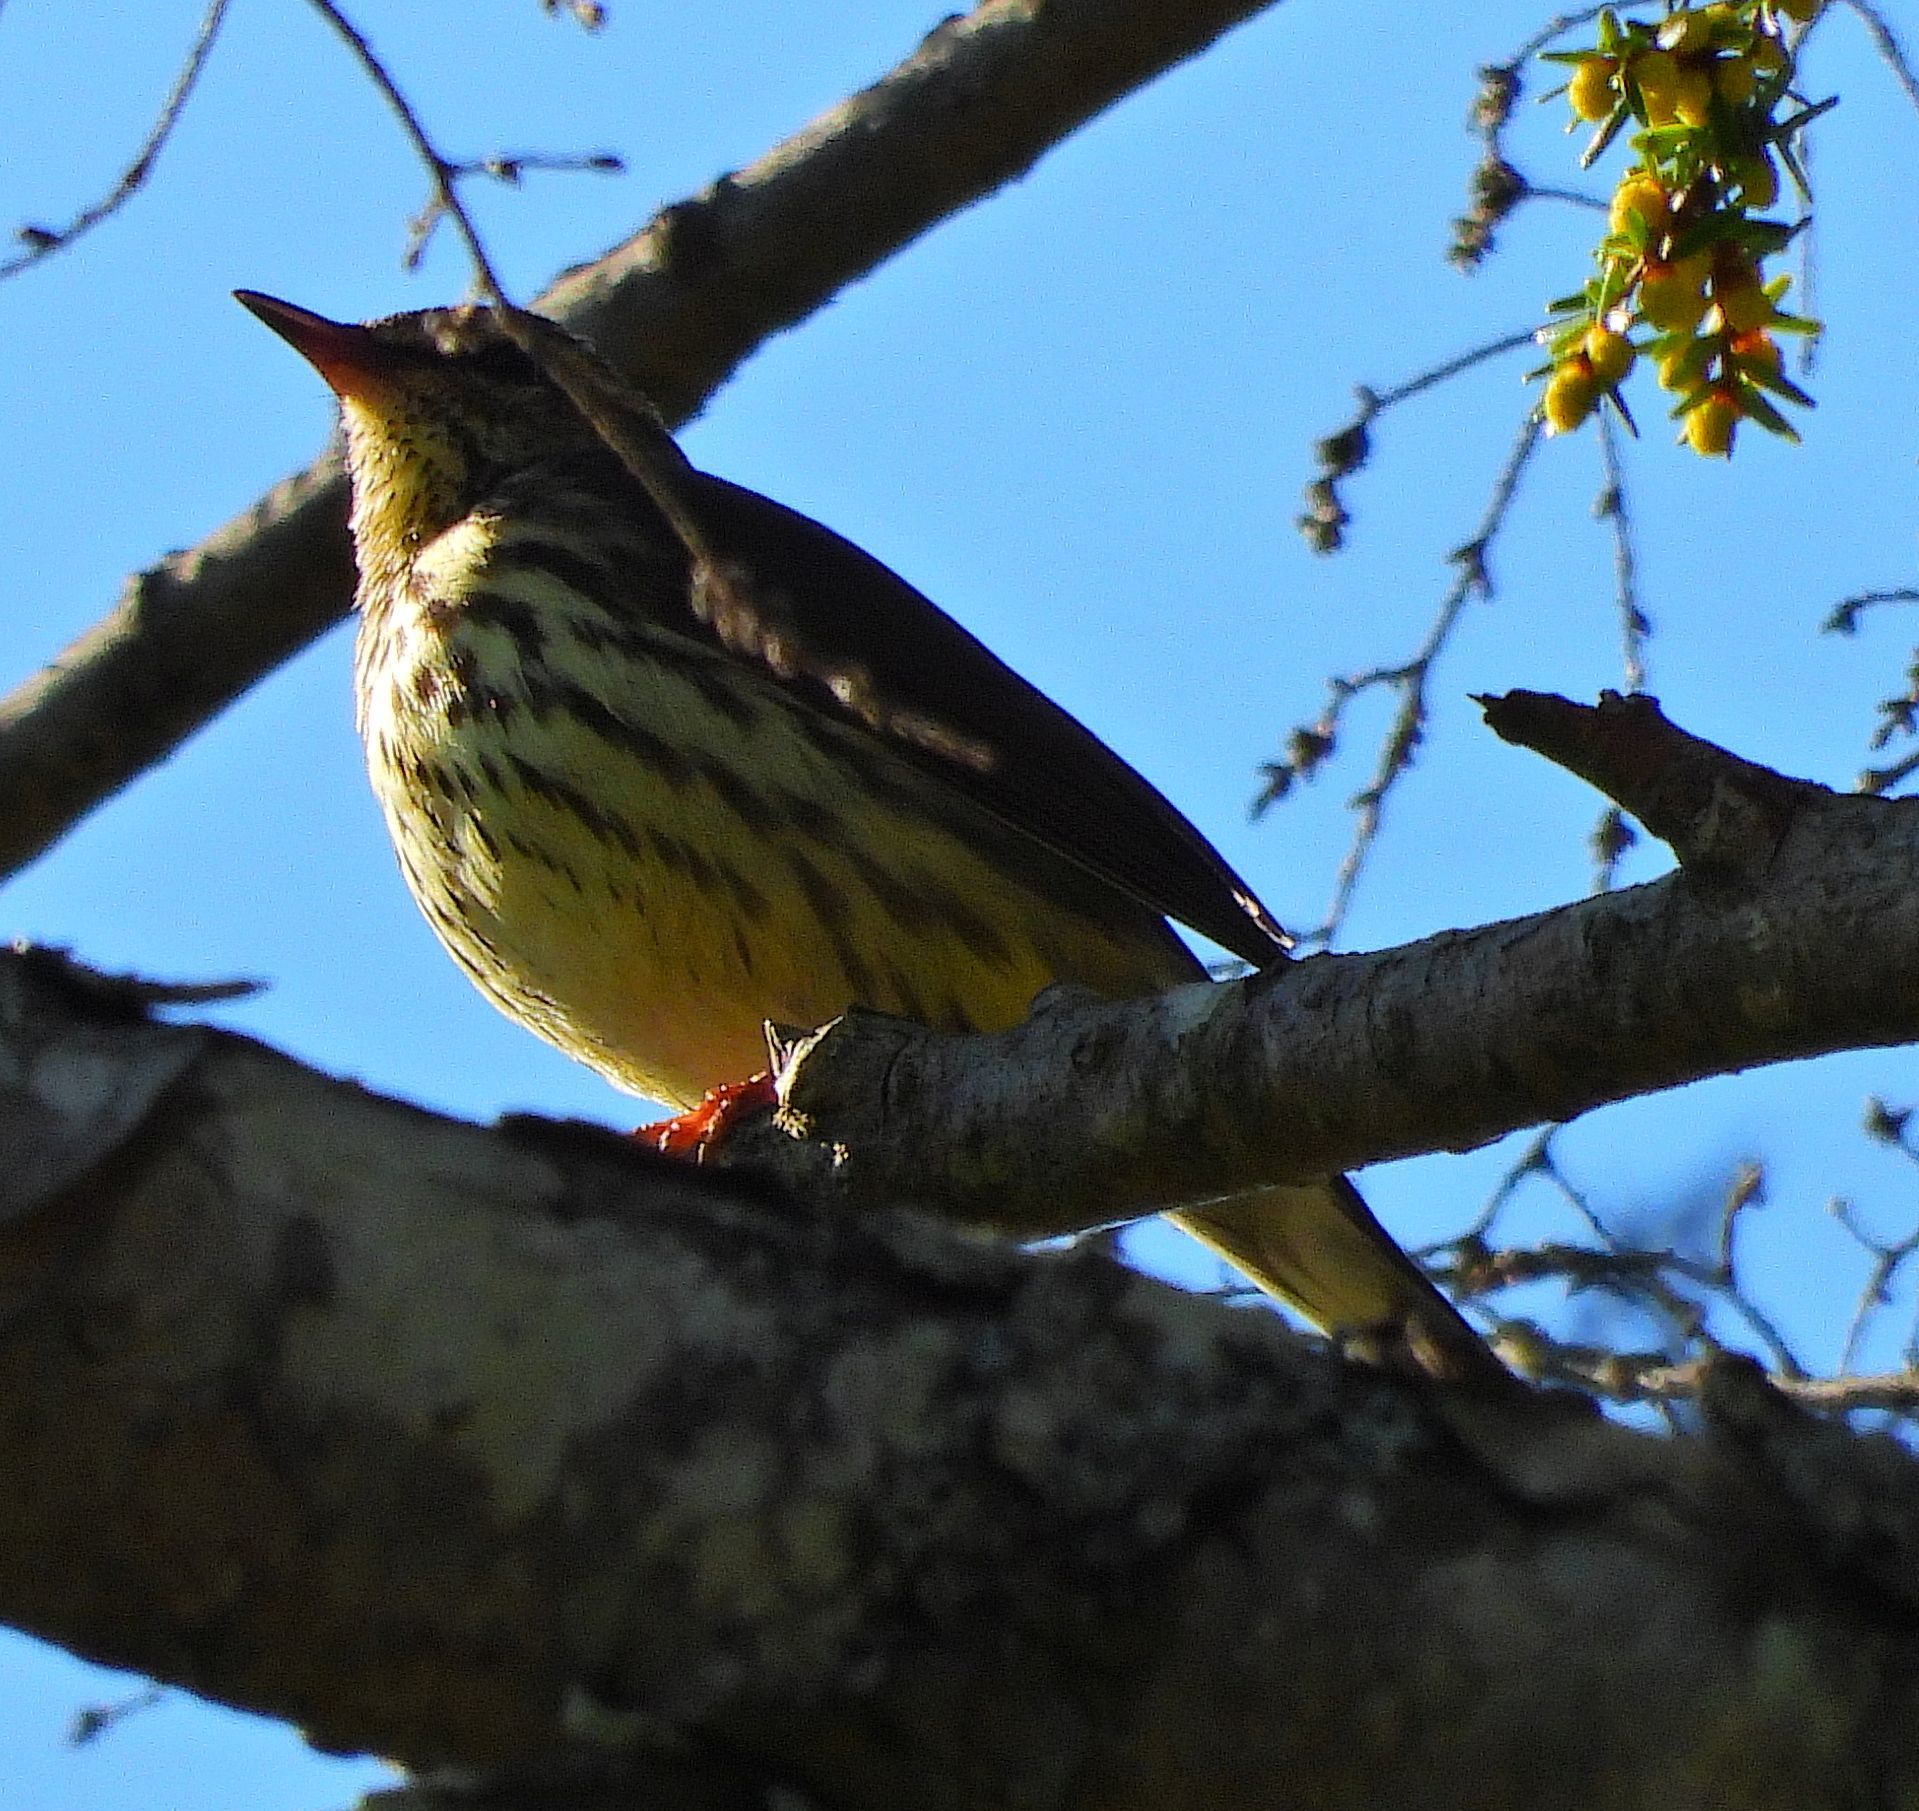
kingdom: Animalia
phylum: Chordata
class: Aves
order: Passeriformes
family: Parulidae
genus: Parkesia
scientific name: Parkesia noveboracensis
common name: Northern waterthrush
